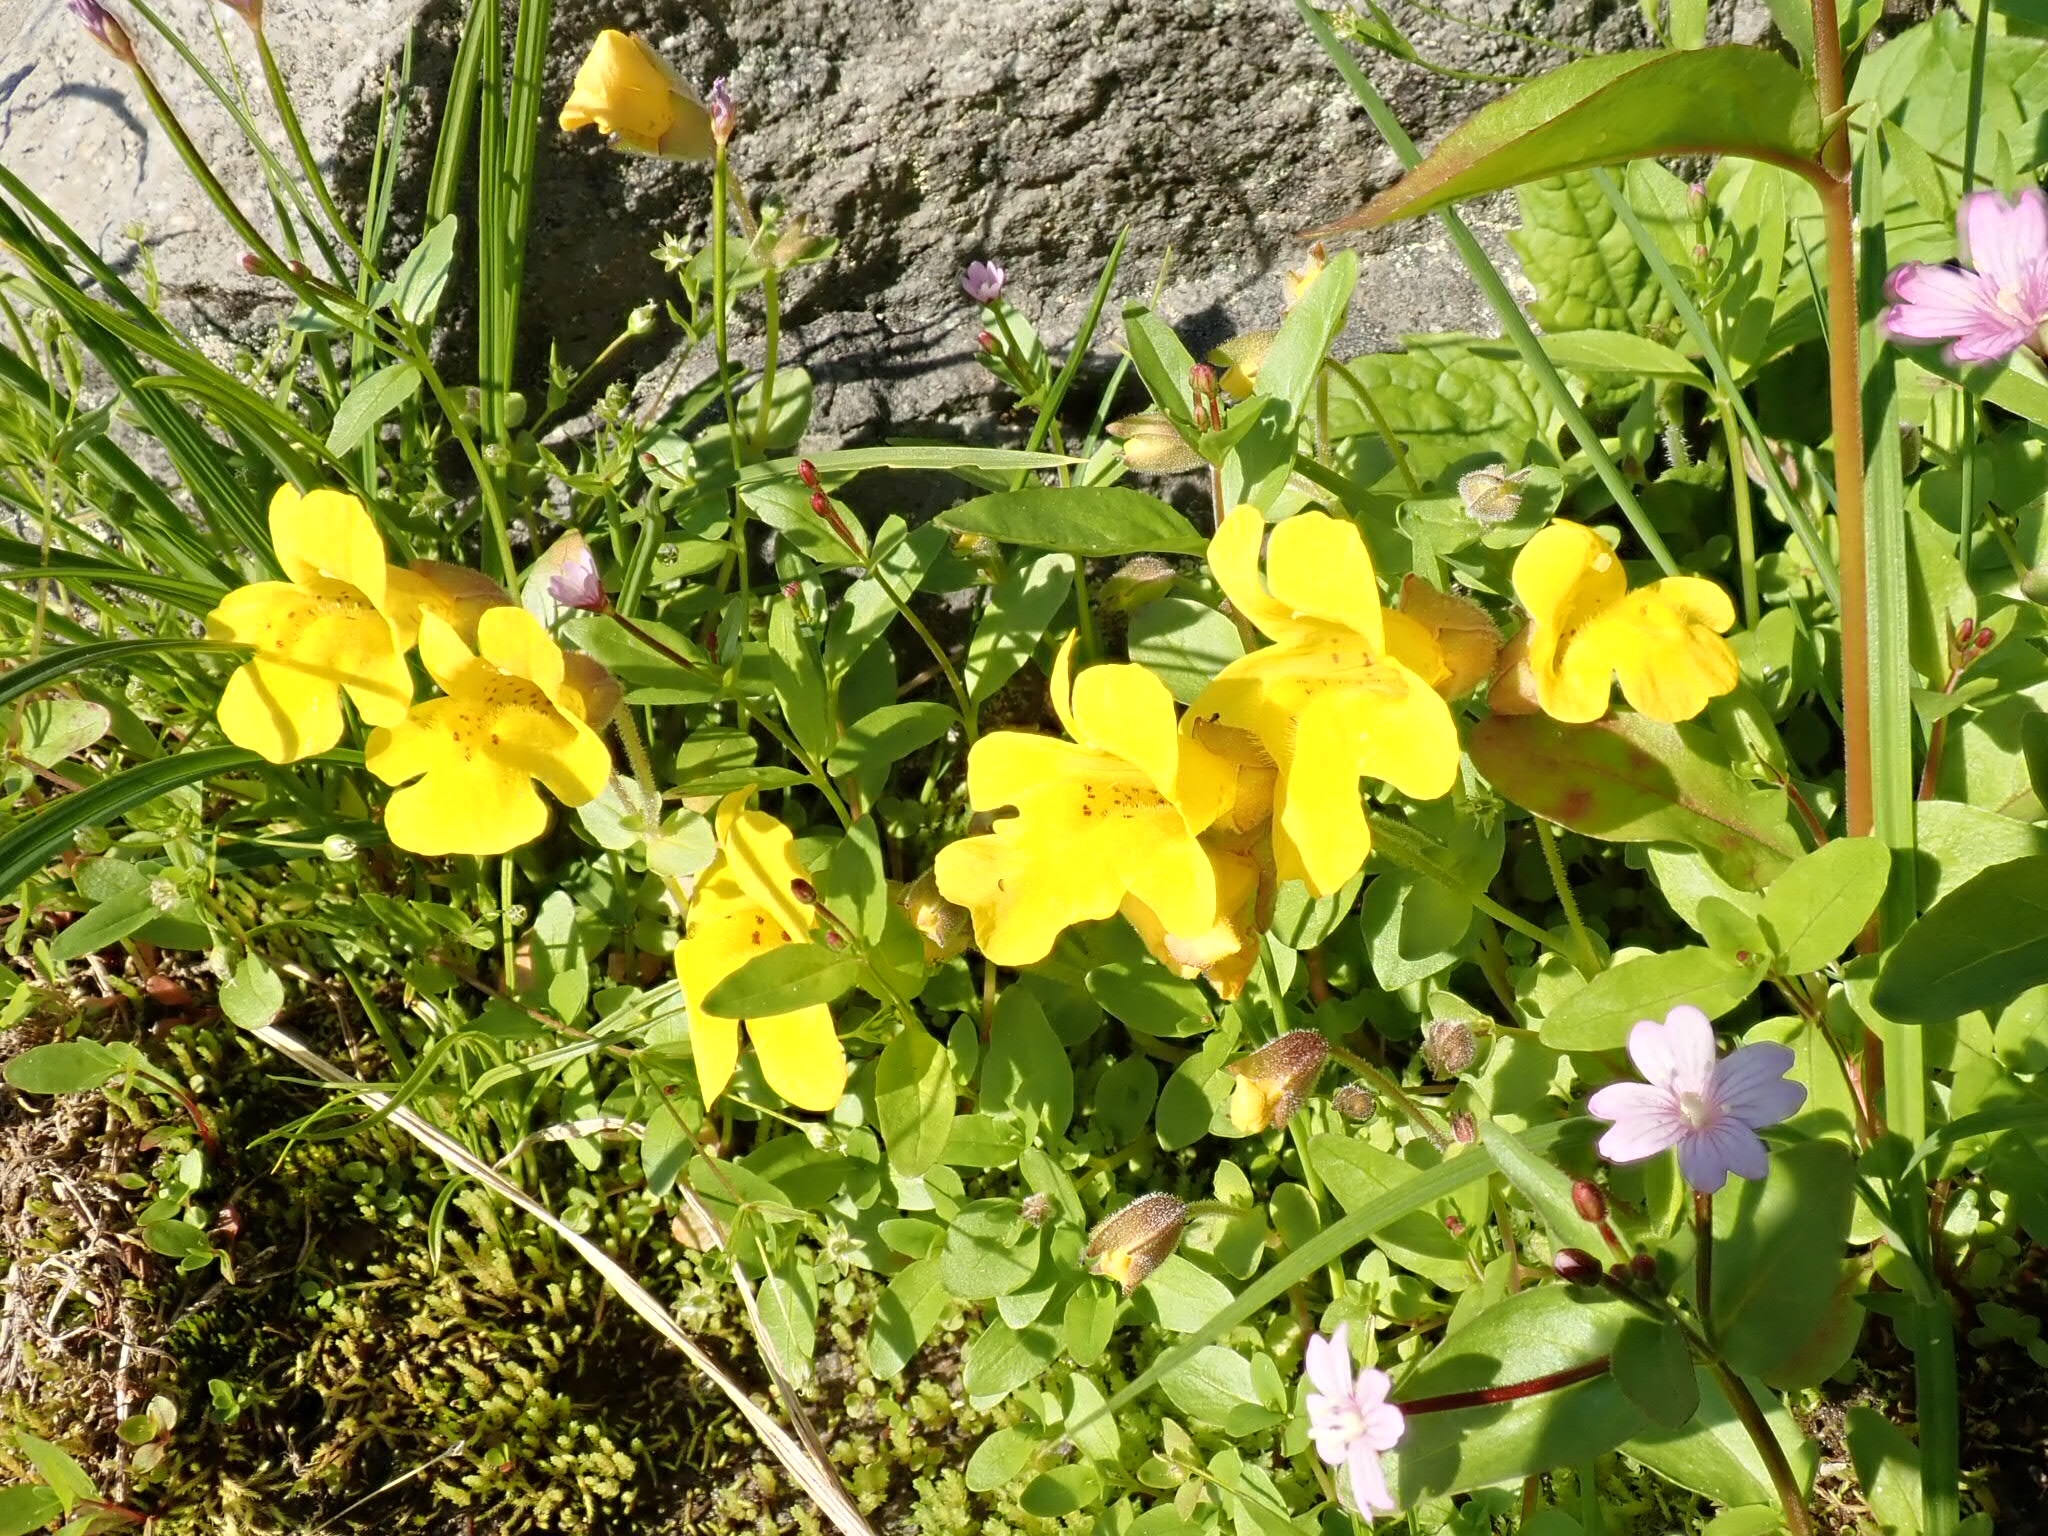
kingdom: Plantae
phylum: Tracheophyta
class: Magnoliopsida
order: Lamiales
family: Phrymaceae
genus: Erythranthe
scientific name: Erythranthe caespitosa
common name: Subalpine monkeyflower
